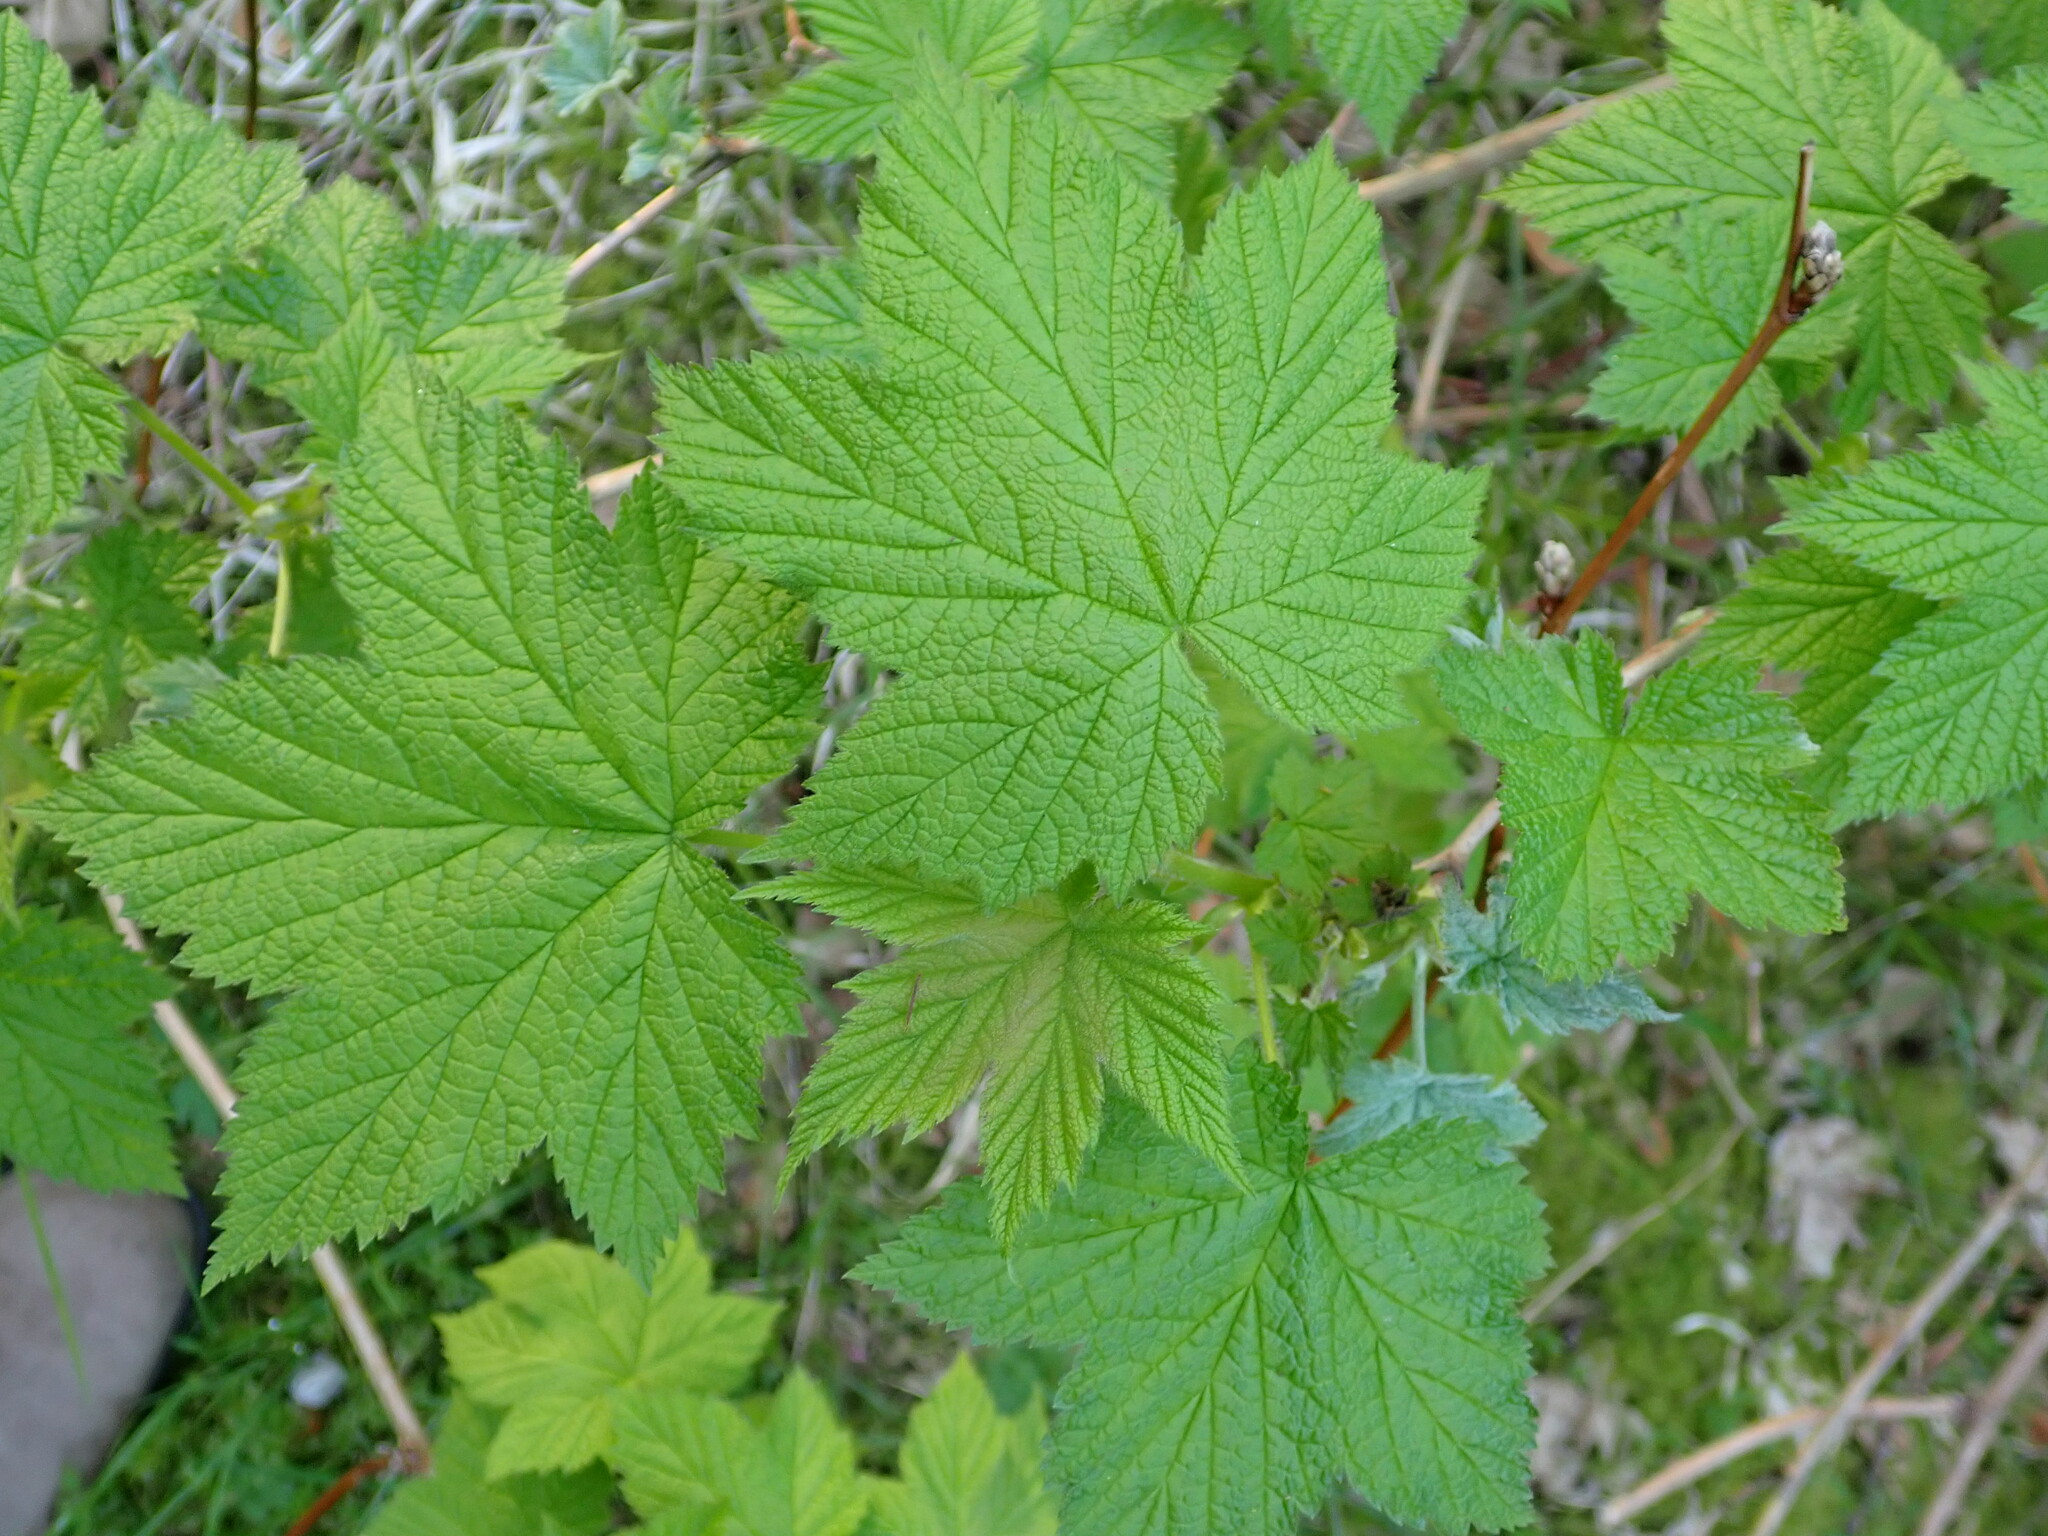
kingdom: Plantae
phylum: Tracheophyta
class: Magnoliopsida
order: Rosales
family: Rosaceae
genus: Rubus
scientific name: Rubus parviflorus
